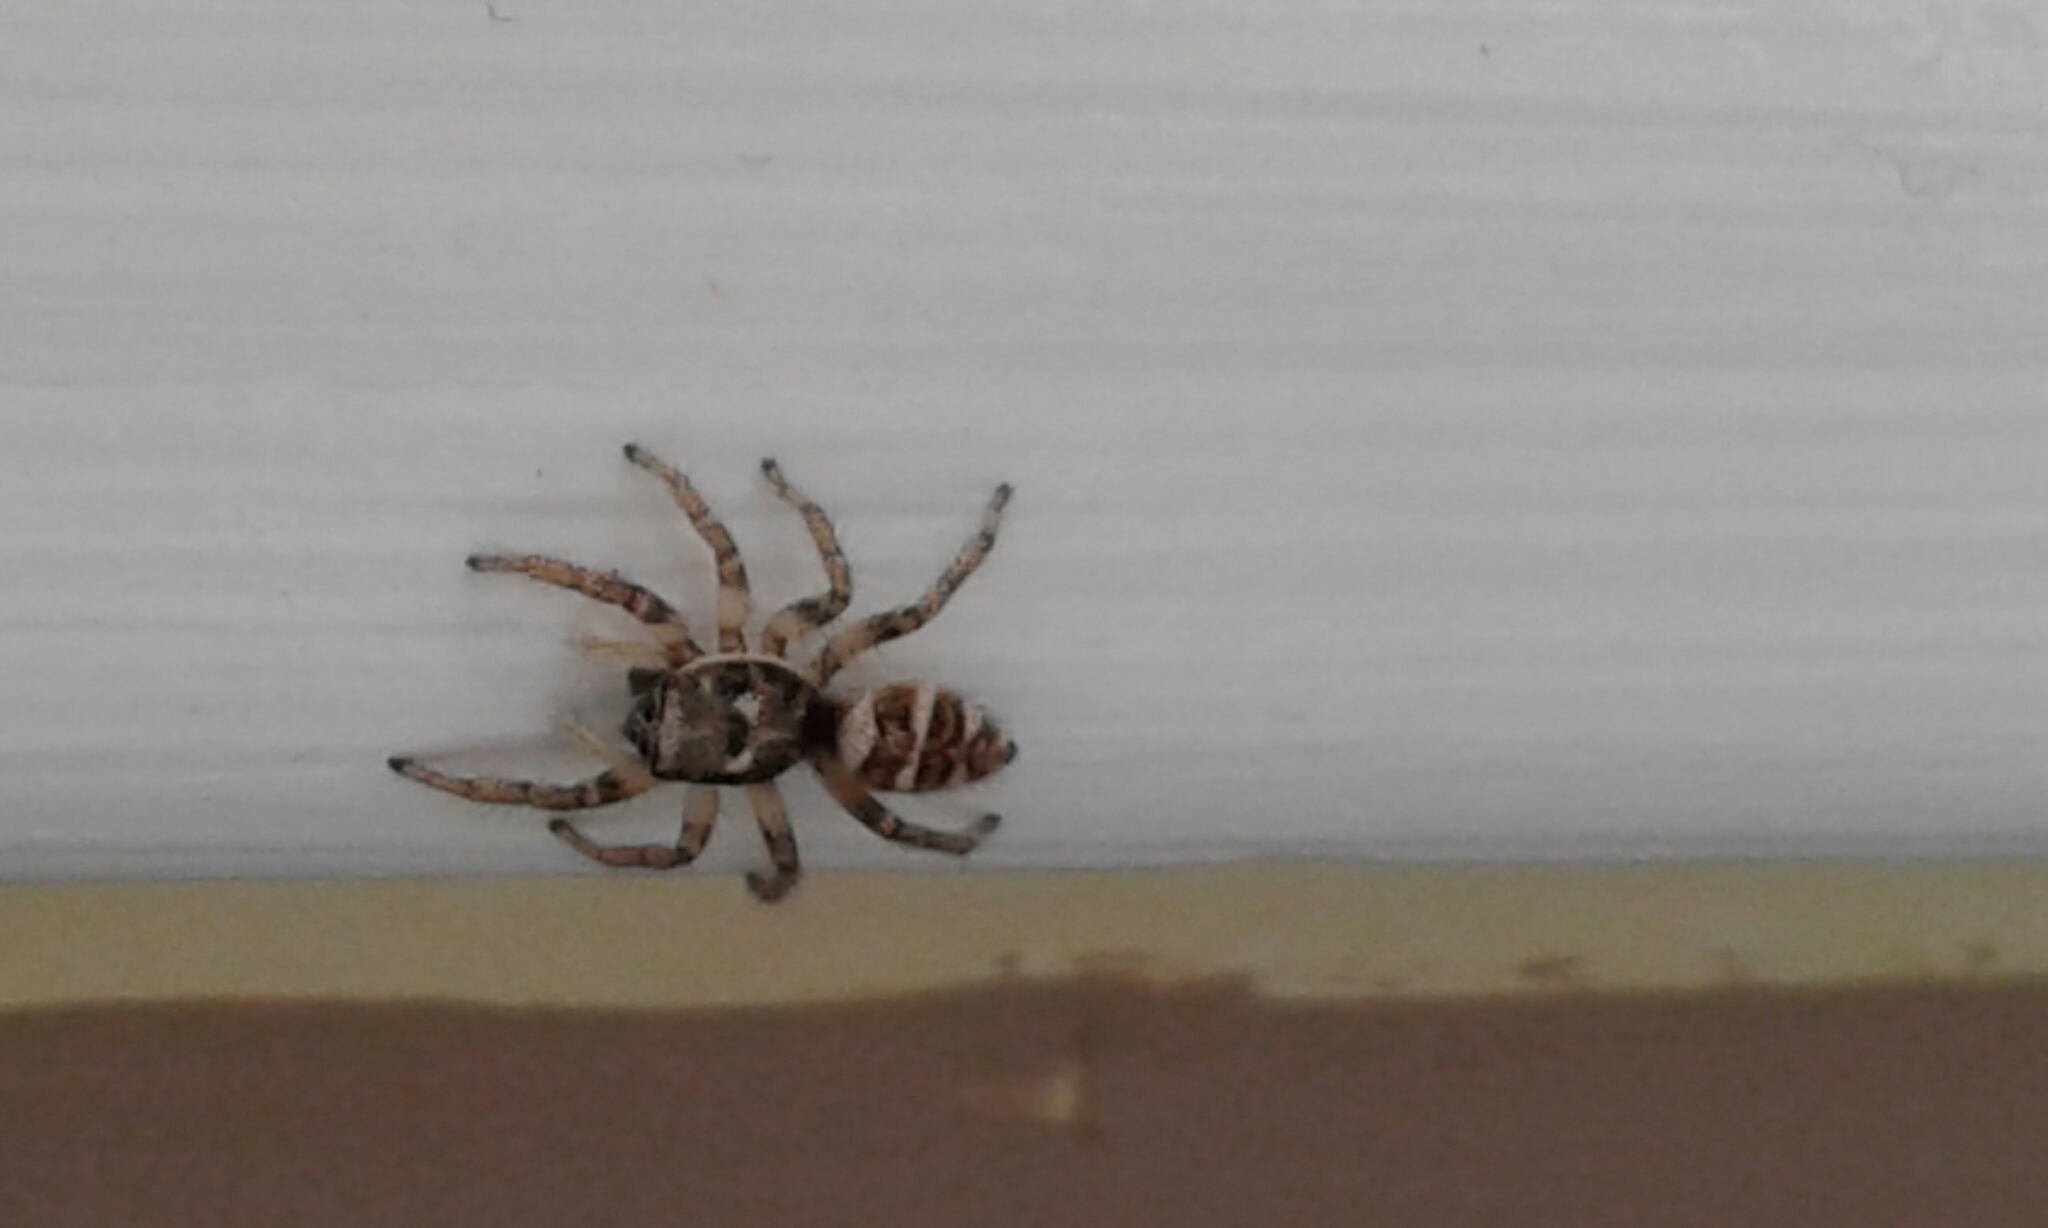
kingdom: Animalia
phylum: Arthropoda
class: Arachnida
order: Araneae
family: Salticidae
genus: Salticus
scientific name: Salticus scenicus
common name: Zebra jumper
